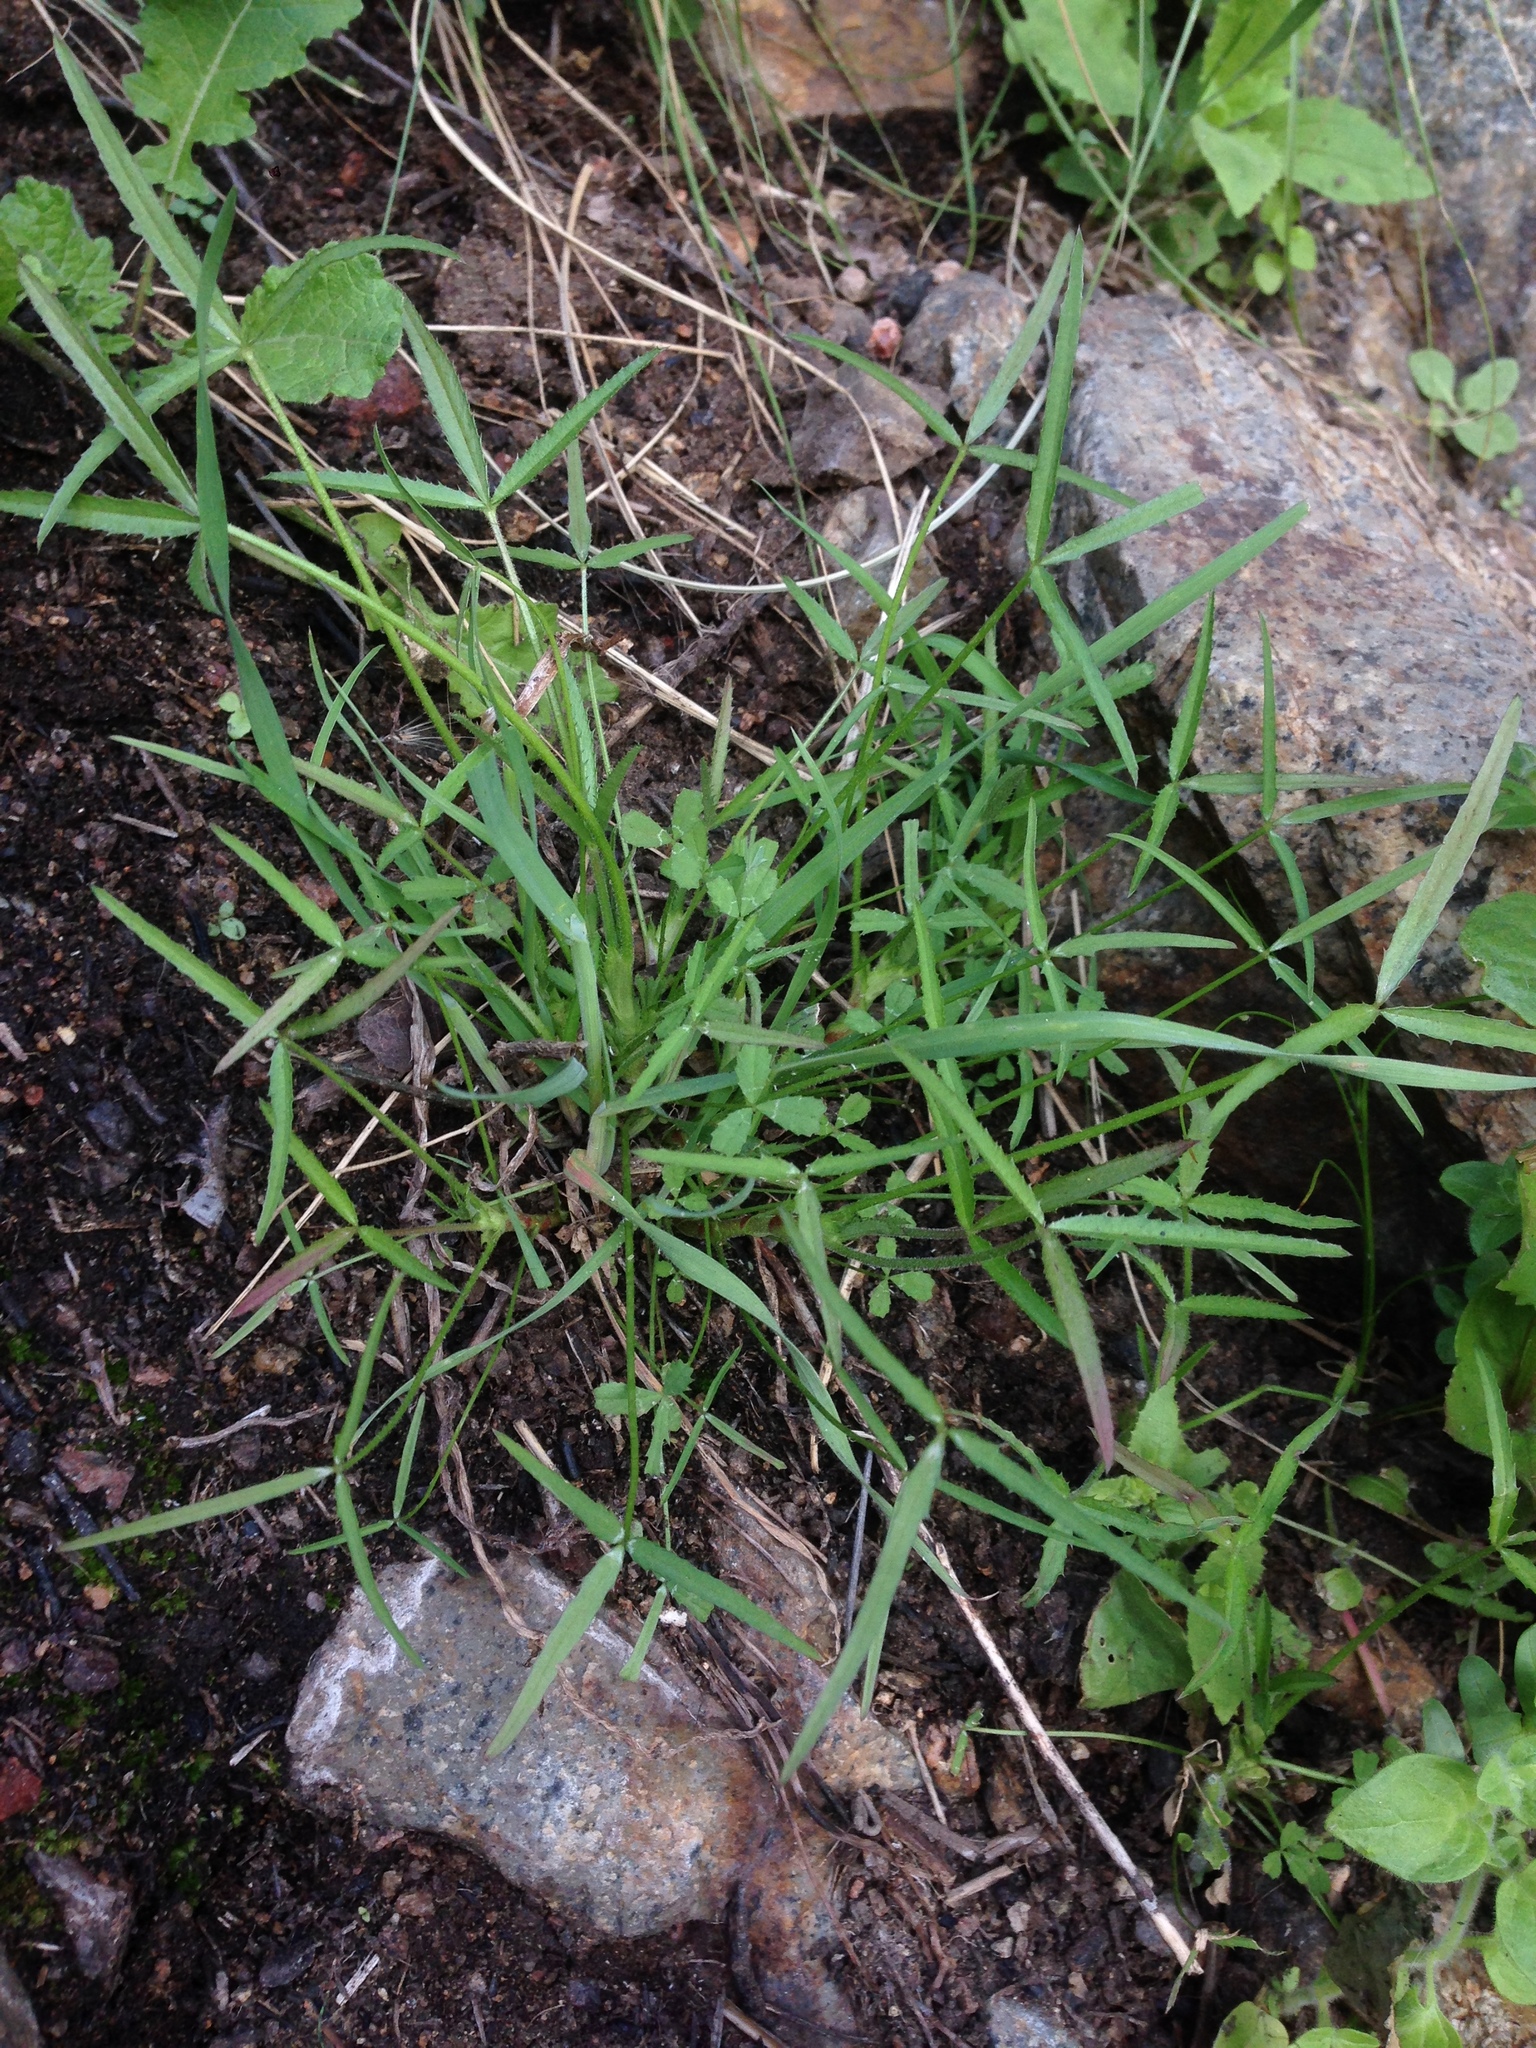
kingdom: Plantae
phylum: Tracheophyta
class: Magnoliopsida
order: Fabales
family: Fabaceae
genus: Trifolium
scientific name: Trifolium willdenovii
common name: Tomcat clover
